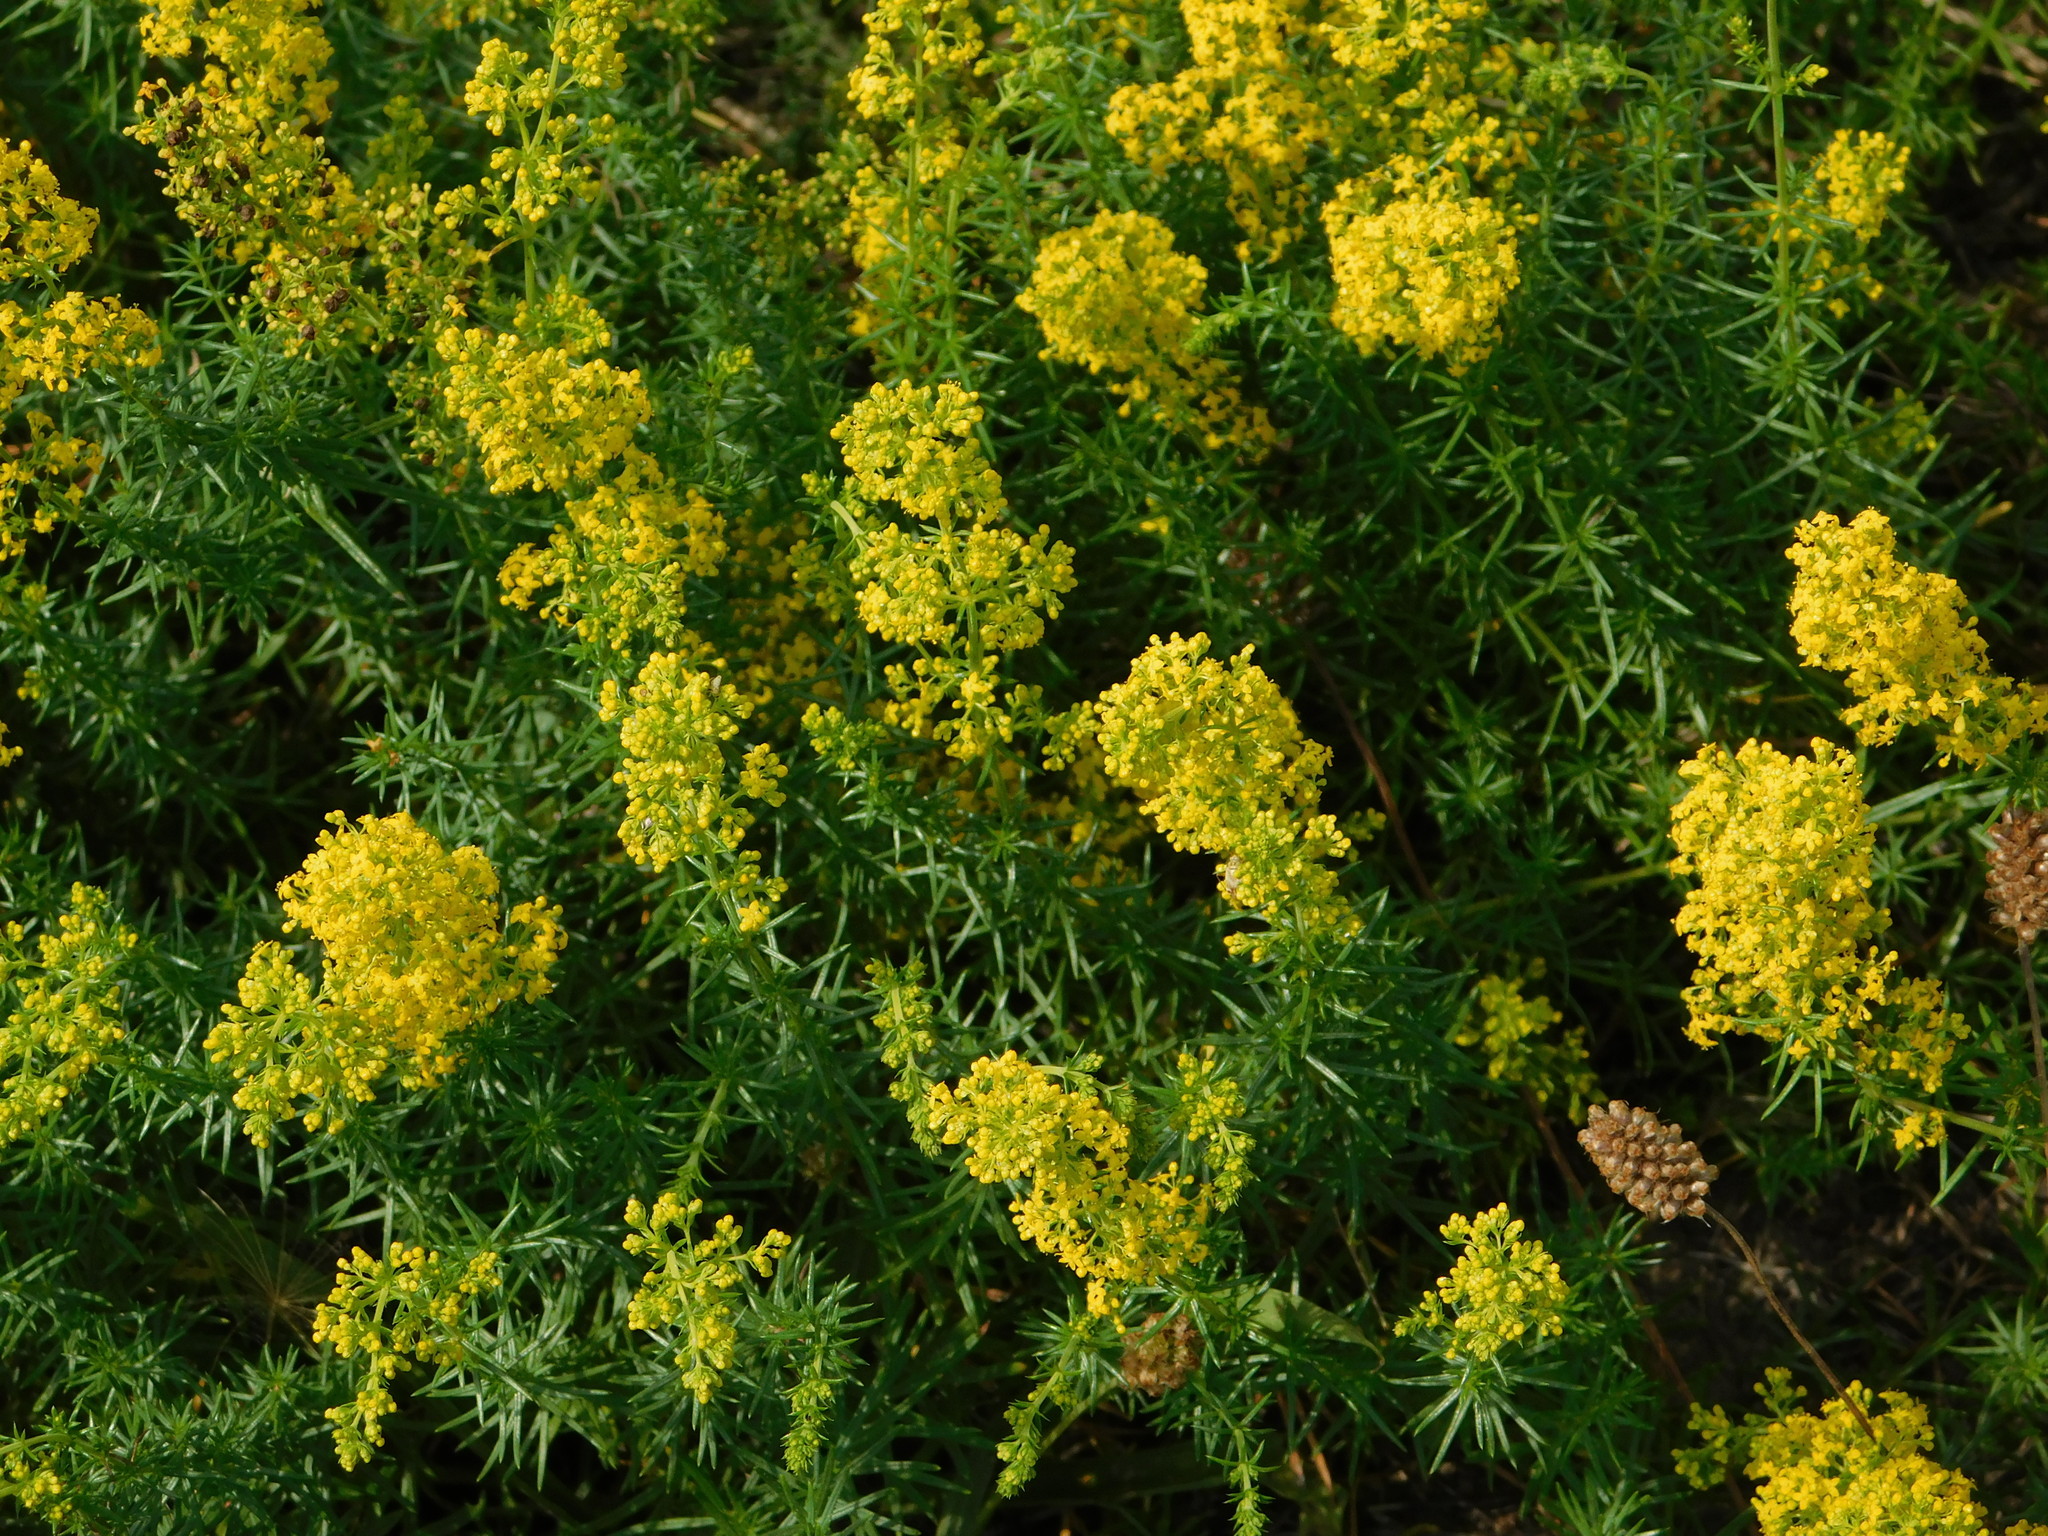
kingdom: Plantae
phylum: Tracheophyta
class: Magnoliopsida
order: Gentianales
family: Rubiaceae
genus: Galium
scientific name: Galium verum
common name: Lady's bedstraw
